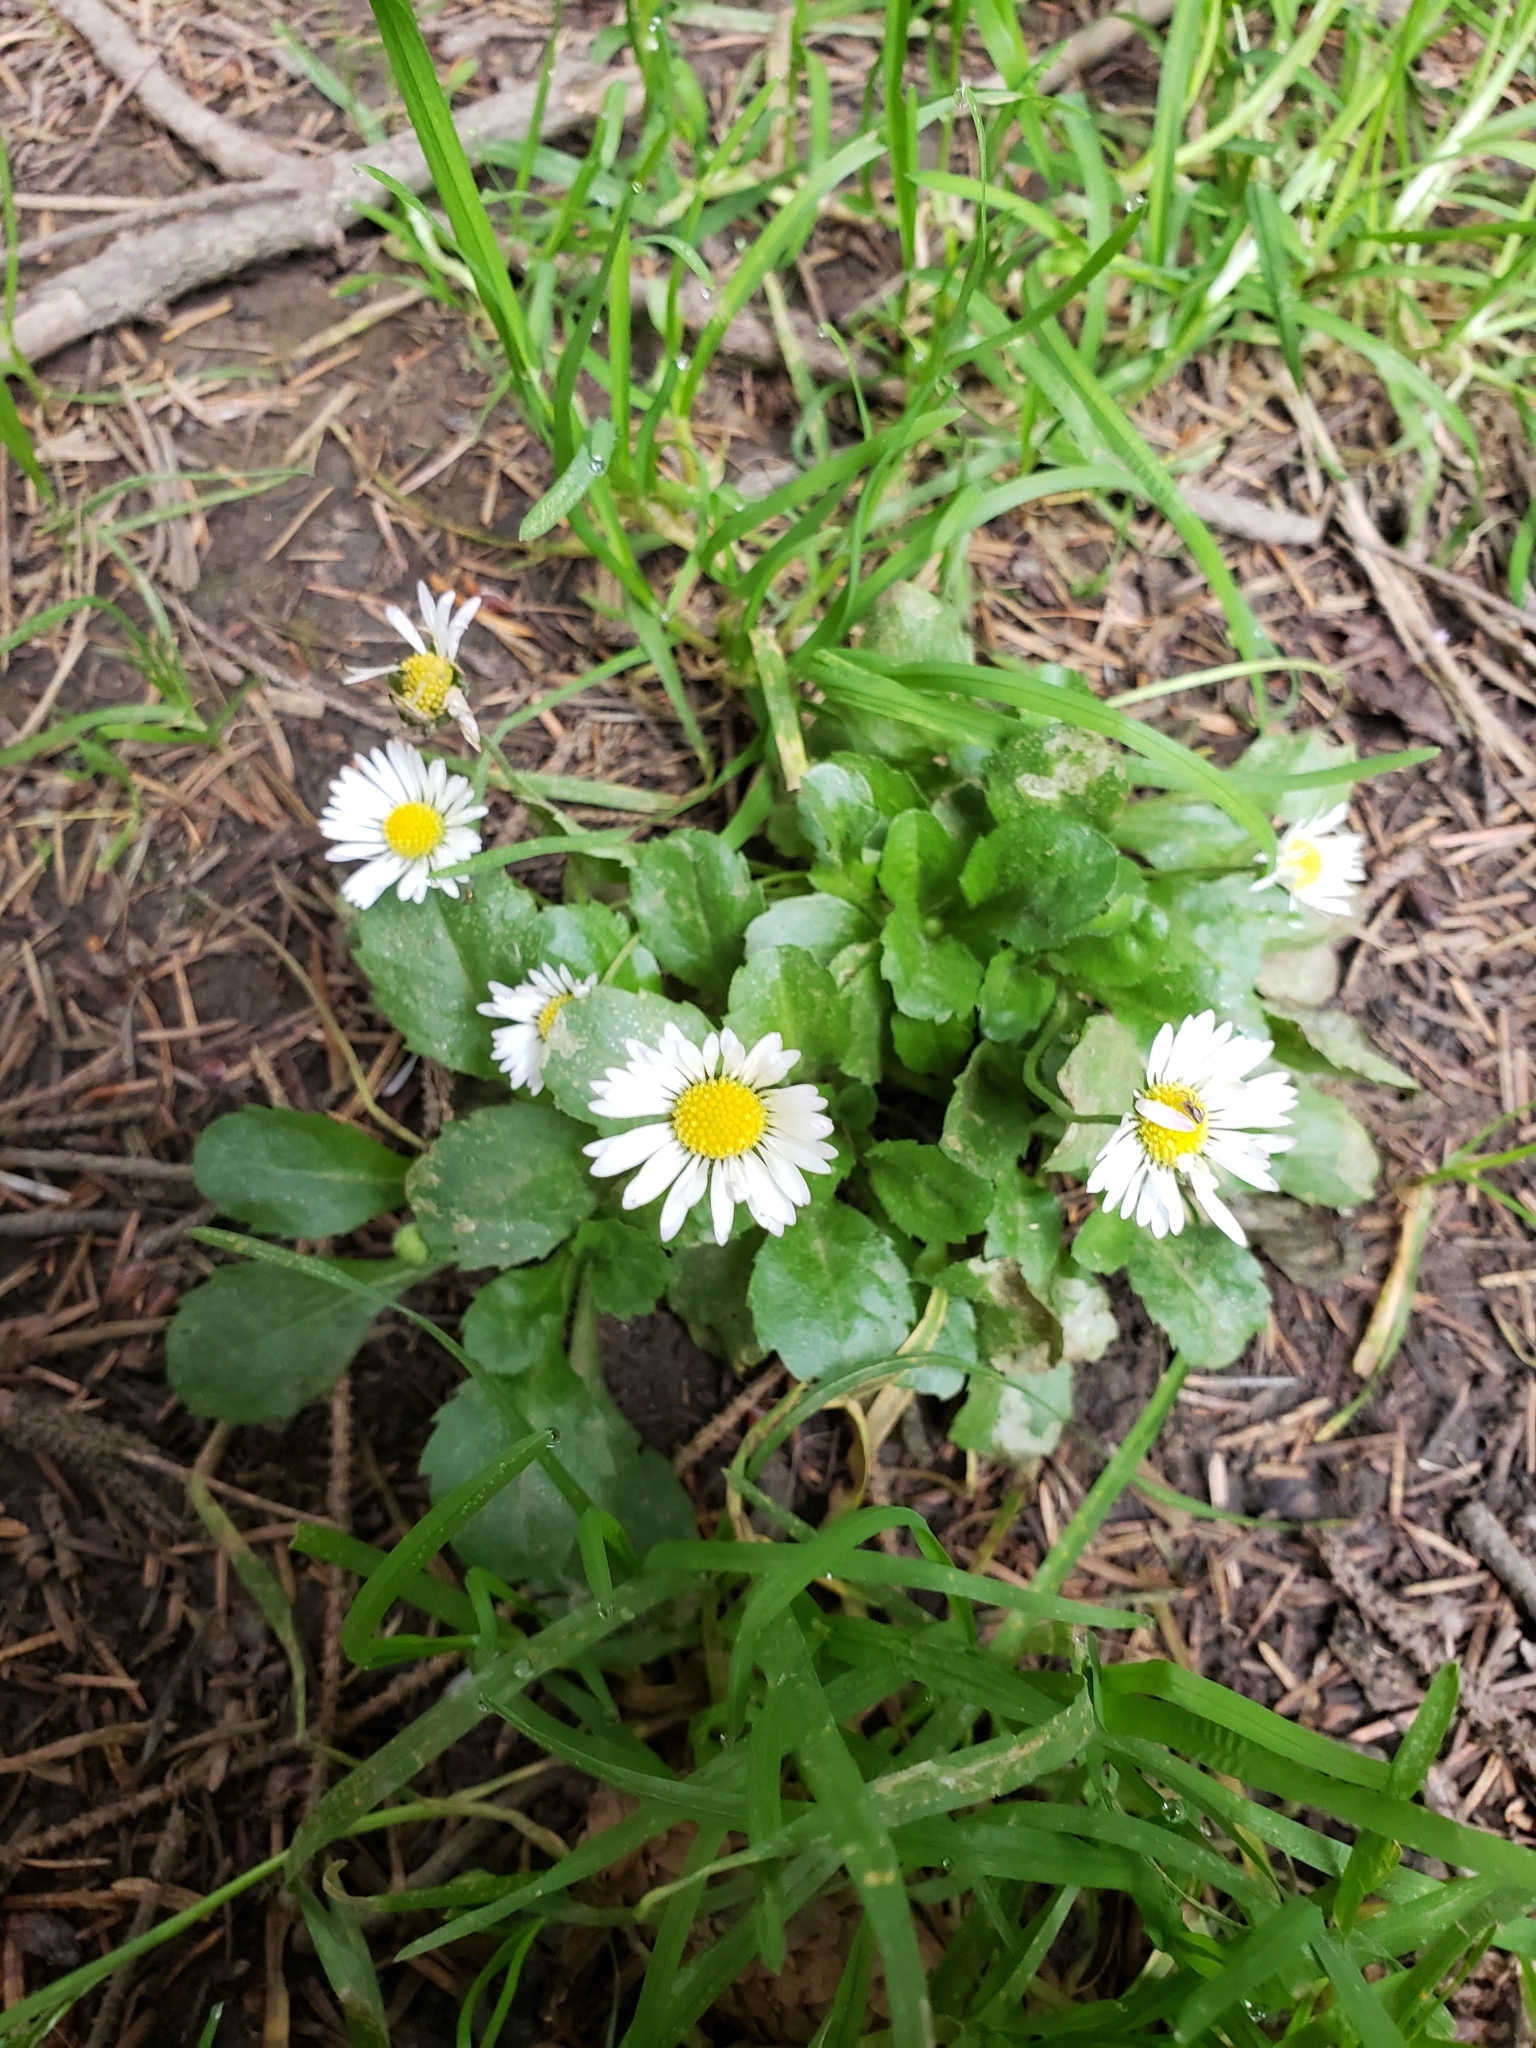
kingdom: Plantae
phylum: Tracheophyta
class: Magnoliopsida
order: Asterales
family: Asteraceae
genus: Bellis
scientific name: Bellis perennis
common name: Lawndaisy
